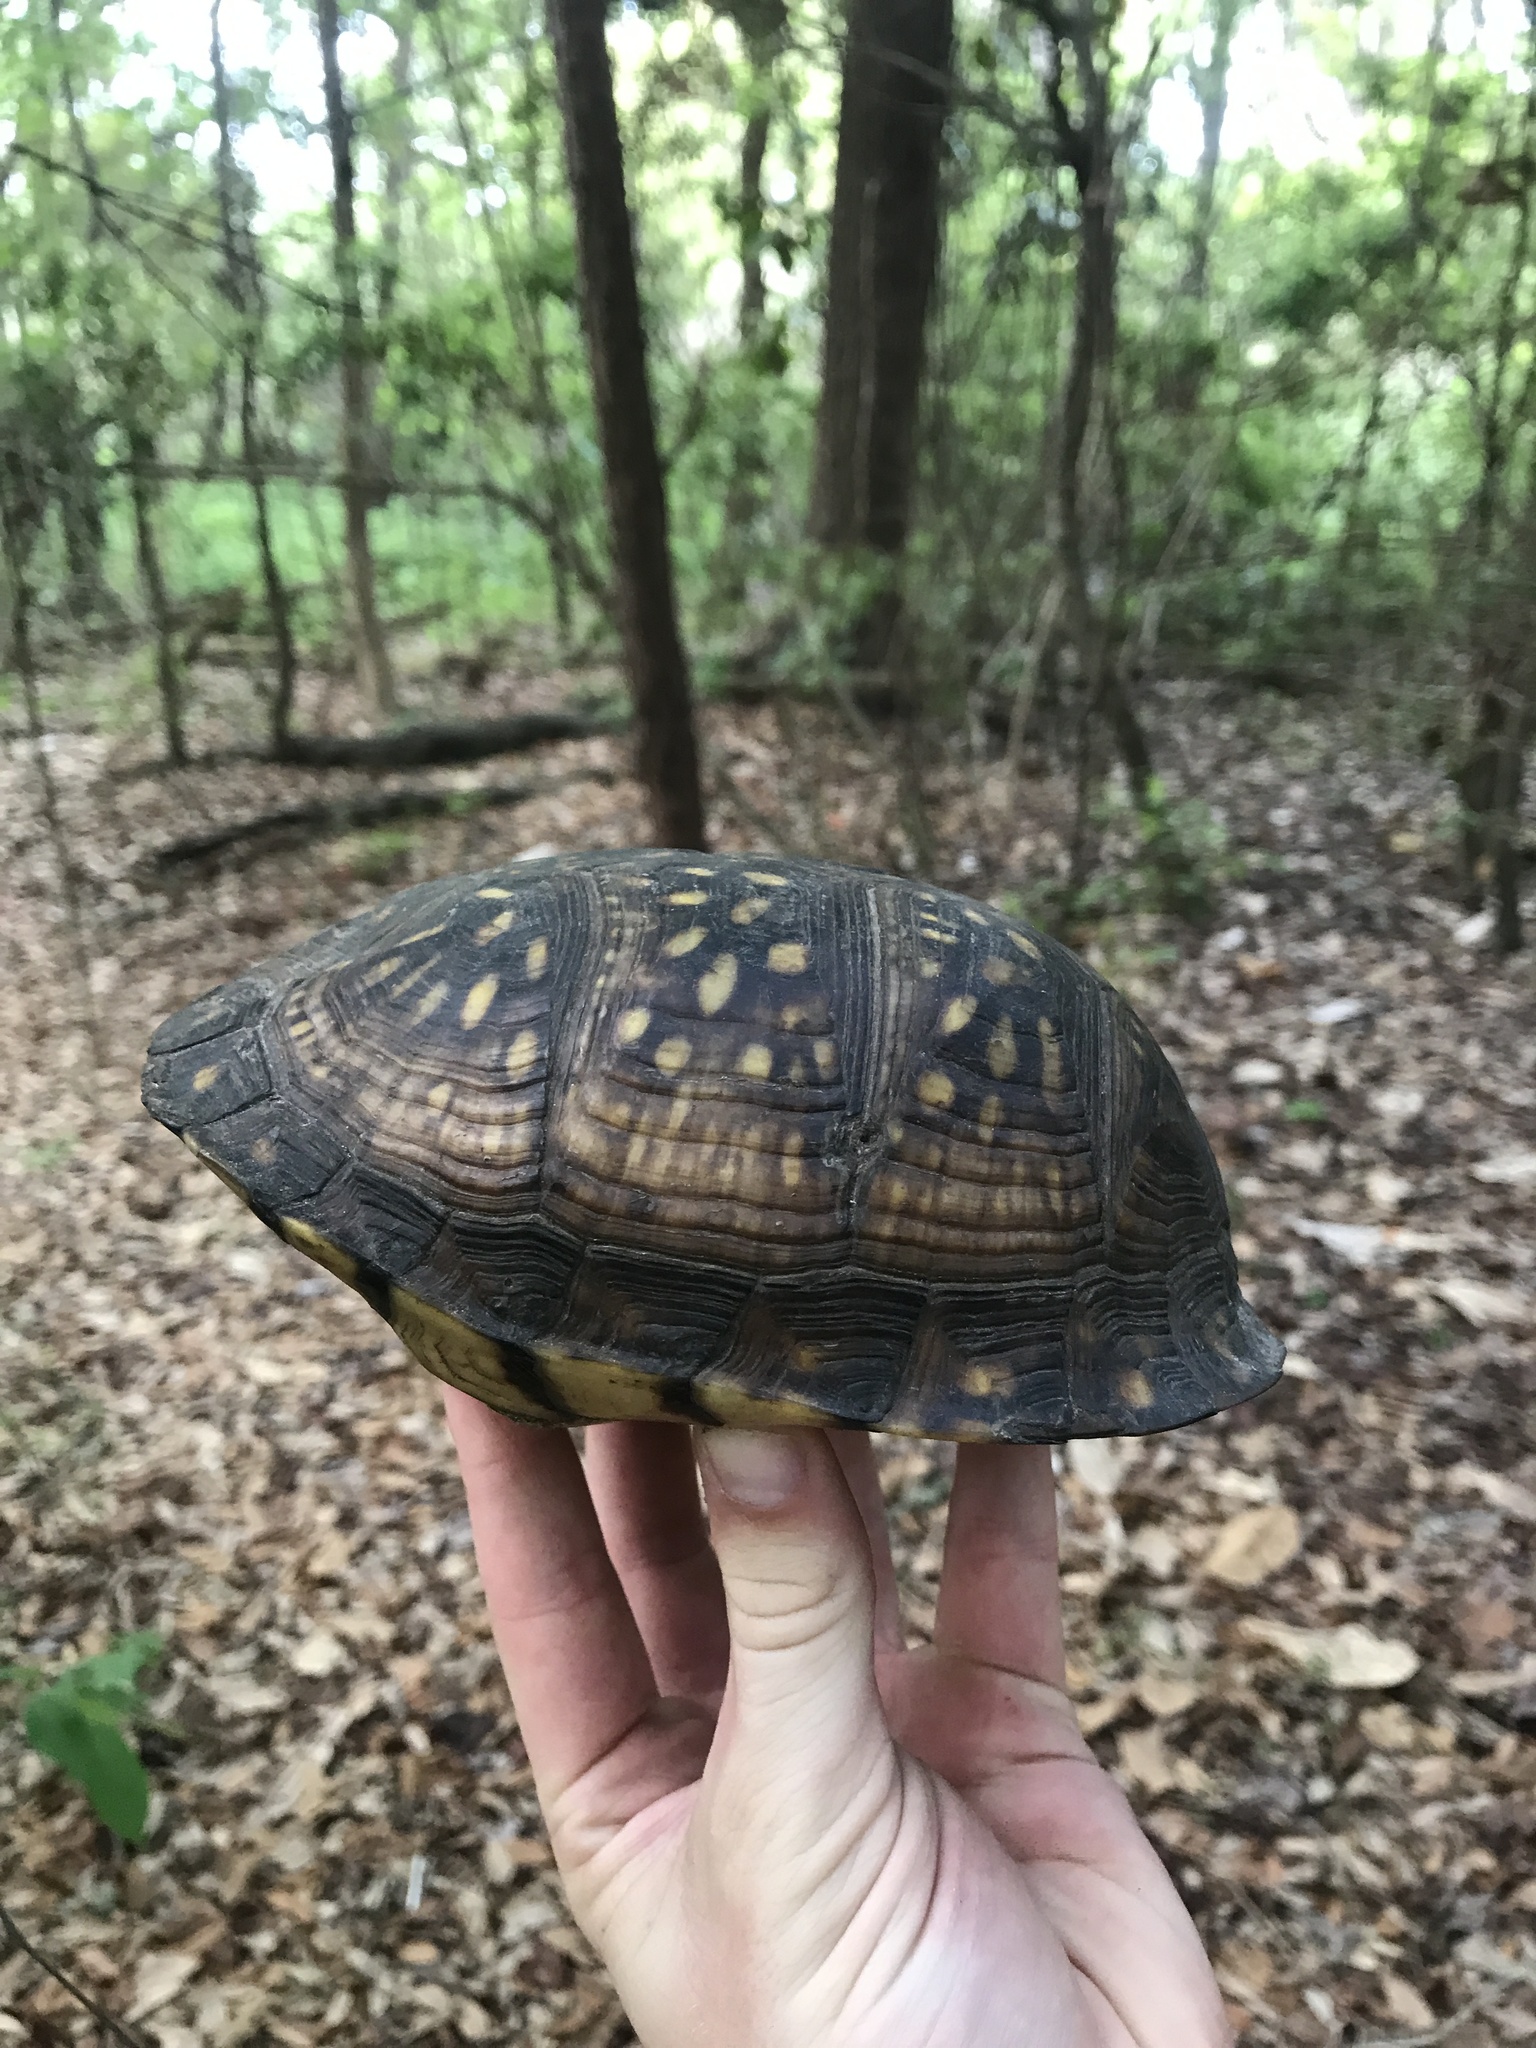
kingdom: Animalia
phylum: Chordata
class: Testudines
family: Emydidae
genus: Terrapene
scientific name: Terrapene carolina
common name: Common box turtle
